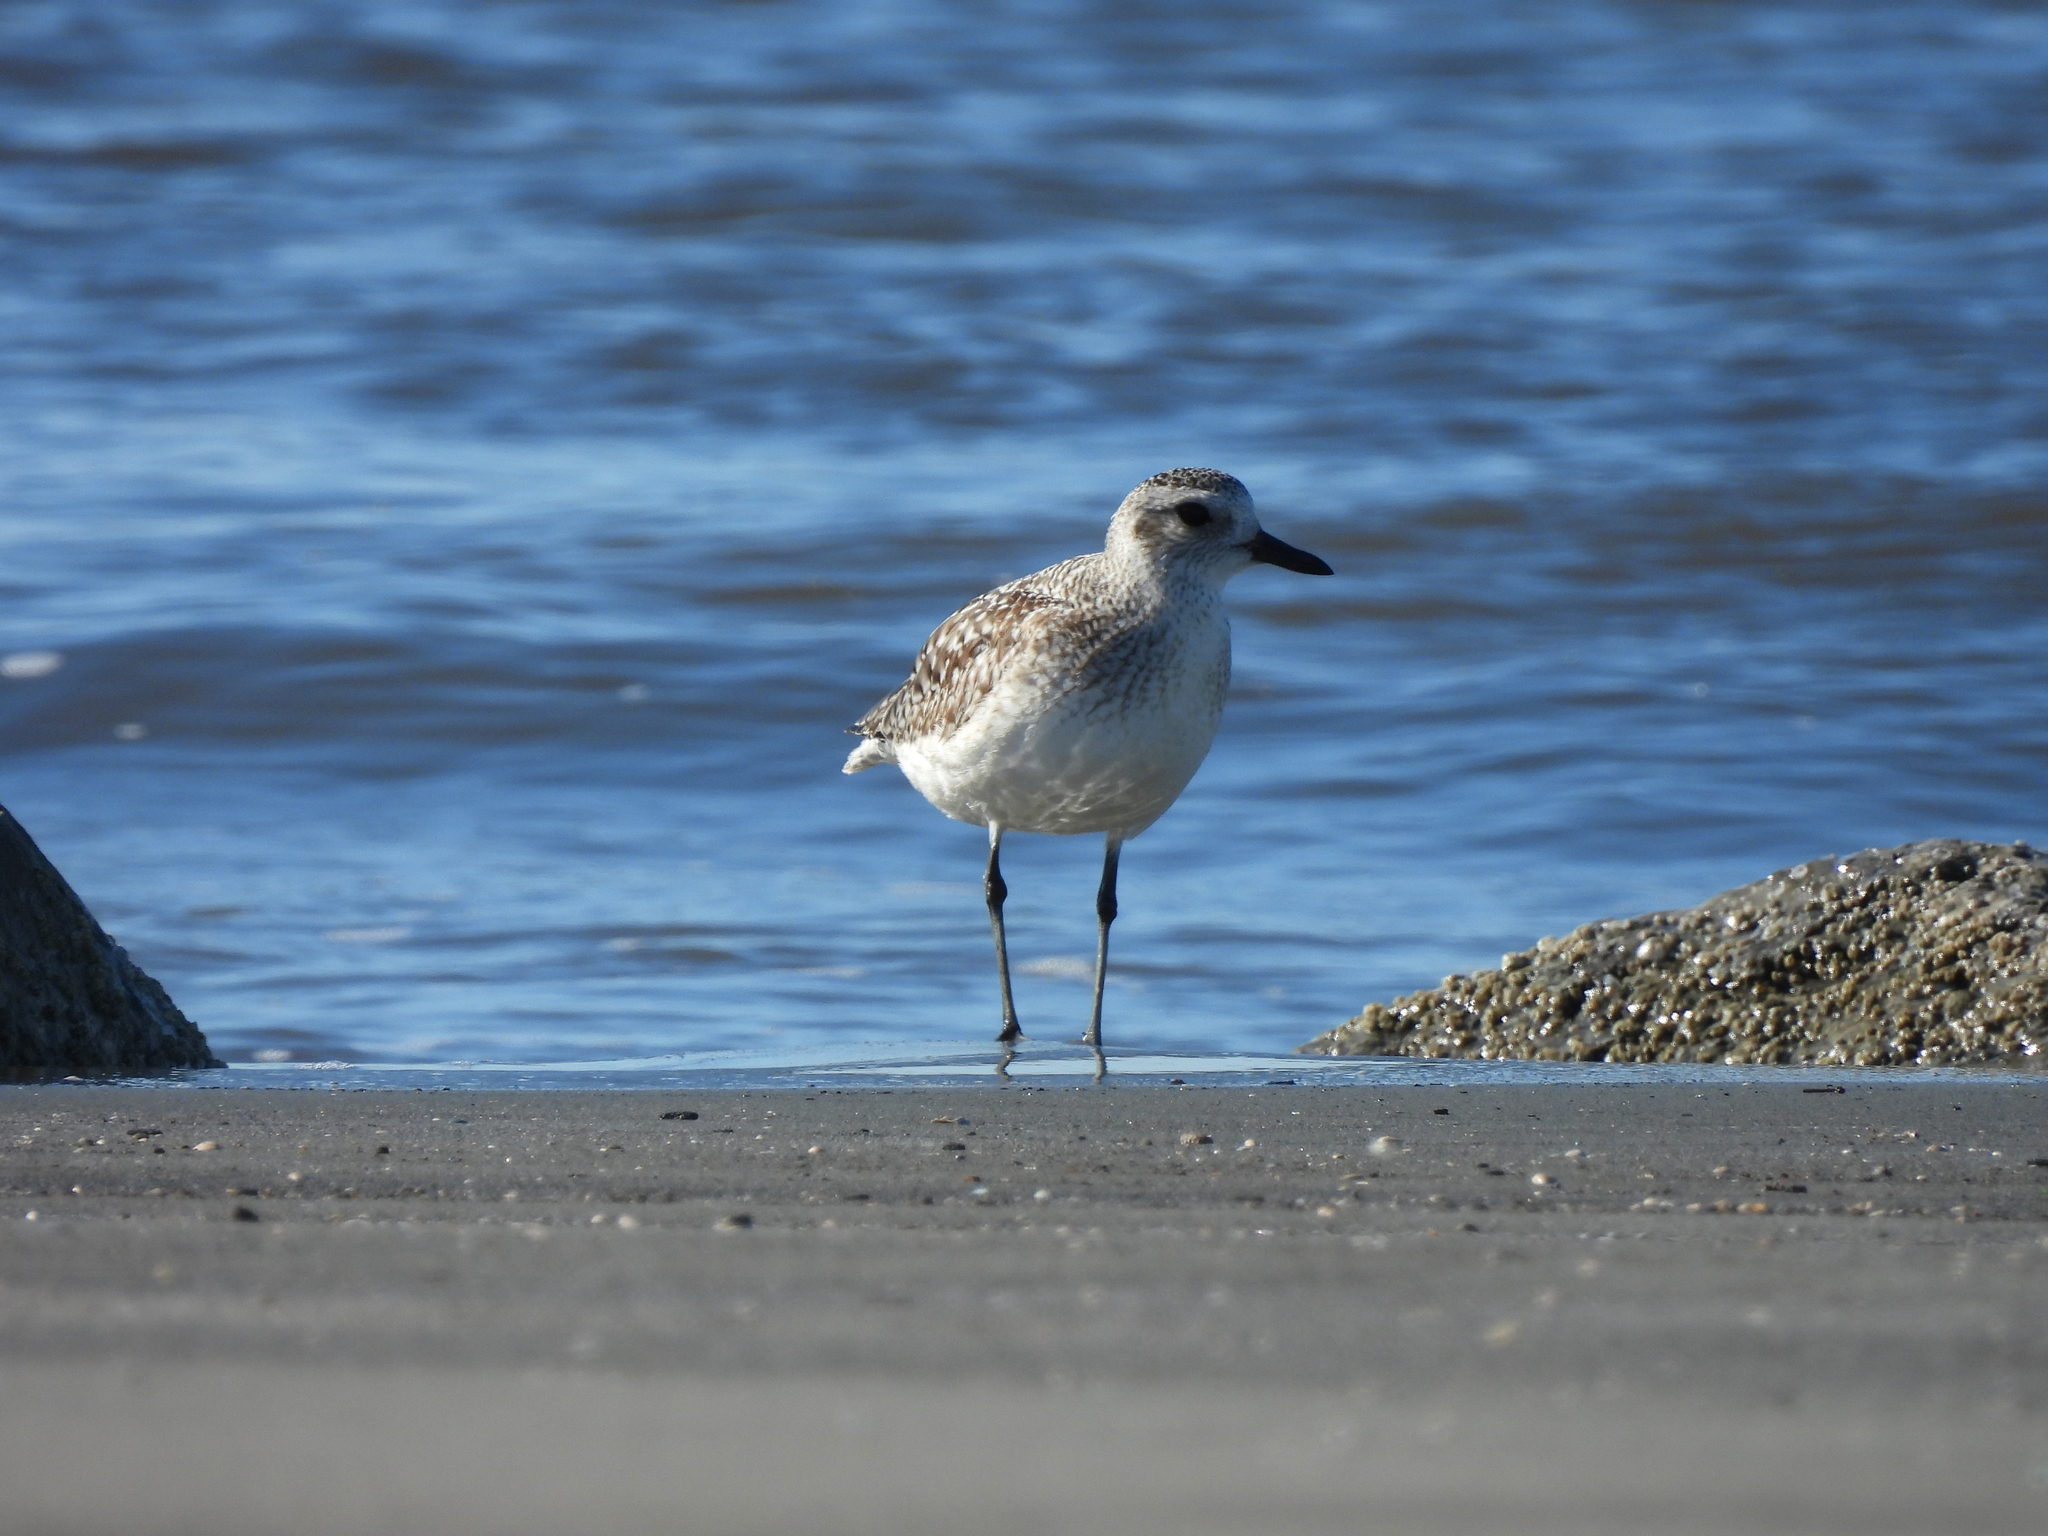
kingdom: Animalia
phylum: Chordata
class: Aves
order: Charadriiformes
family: Charadriidae
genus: Pluvialis
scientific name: Pluvialis squatarola
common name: Grey plover
